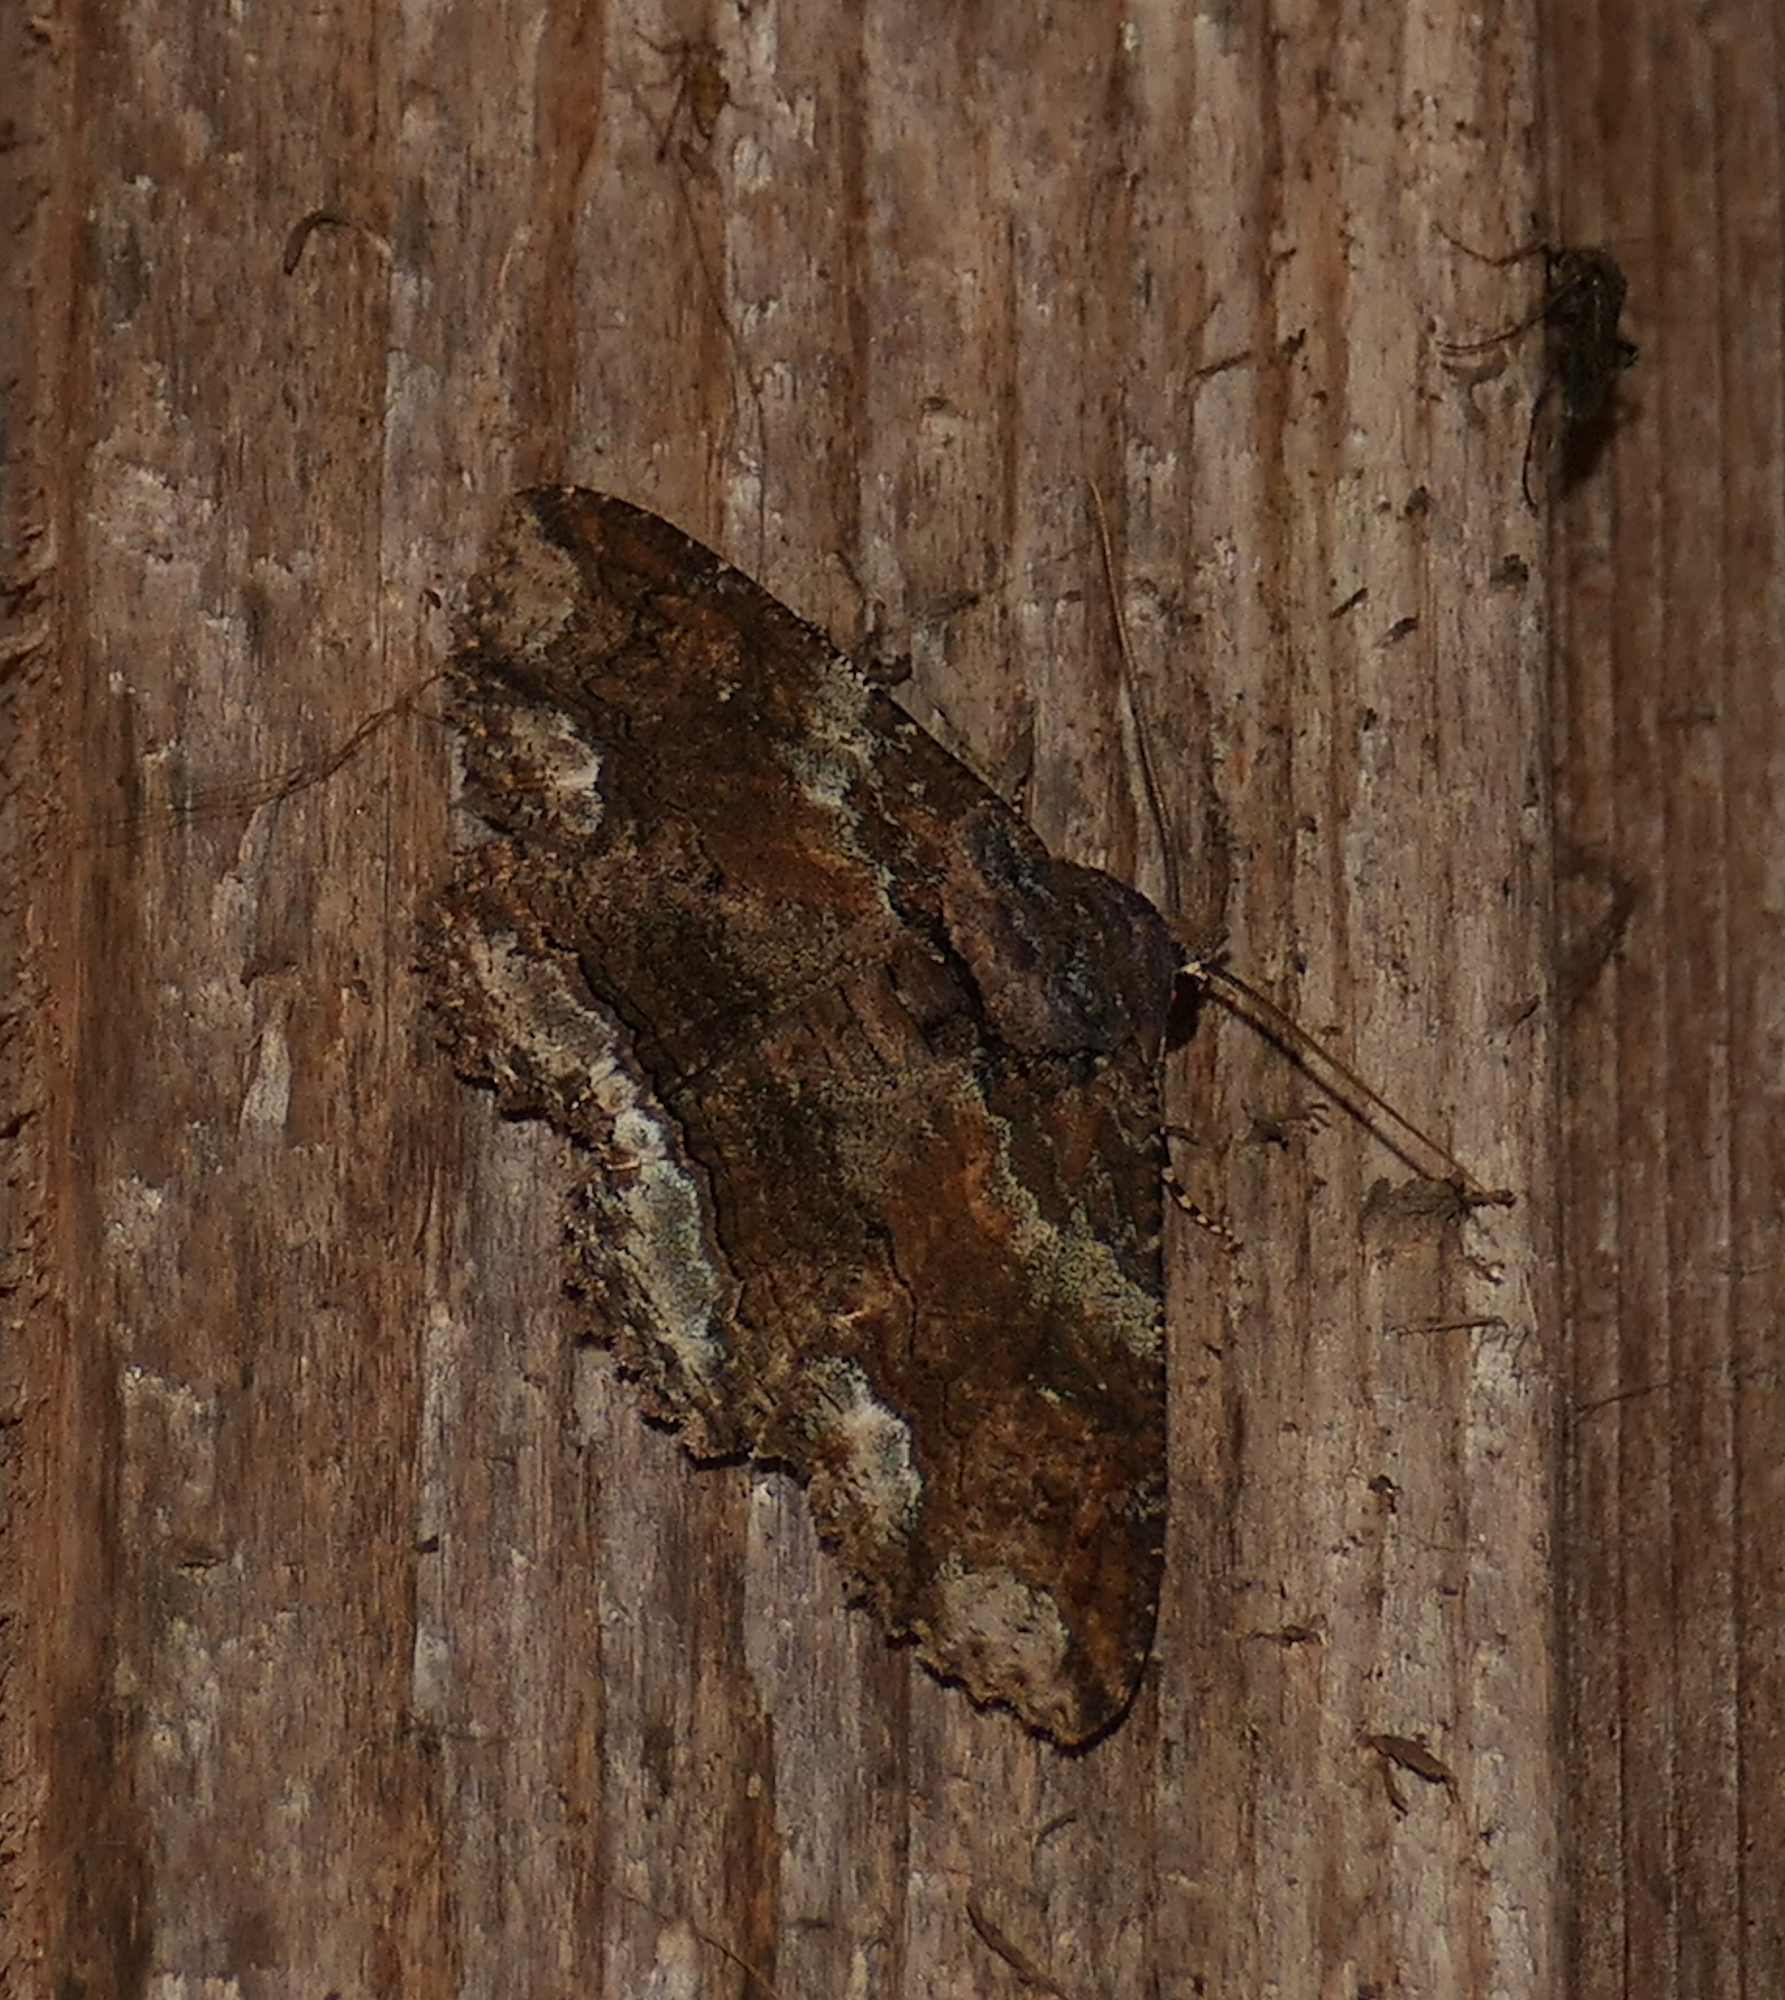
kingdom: Animalia
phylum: Arthropoda
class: Insecta
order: Lepidoptera
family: Erebidae
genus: Zale
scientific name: Zale lunata
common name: Lunate zale moth
